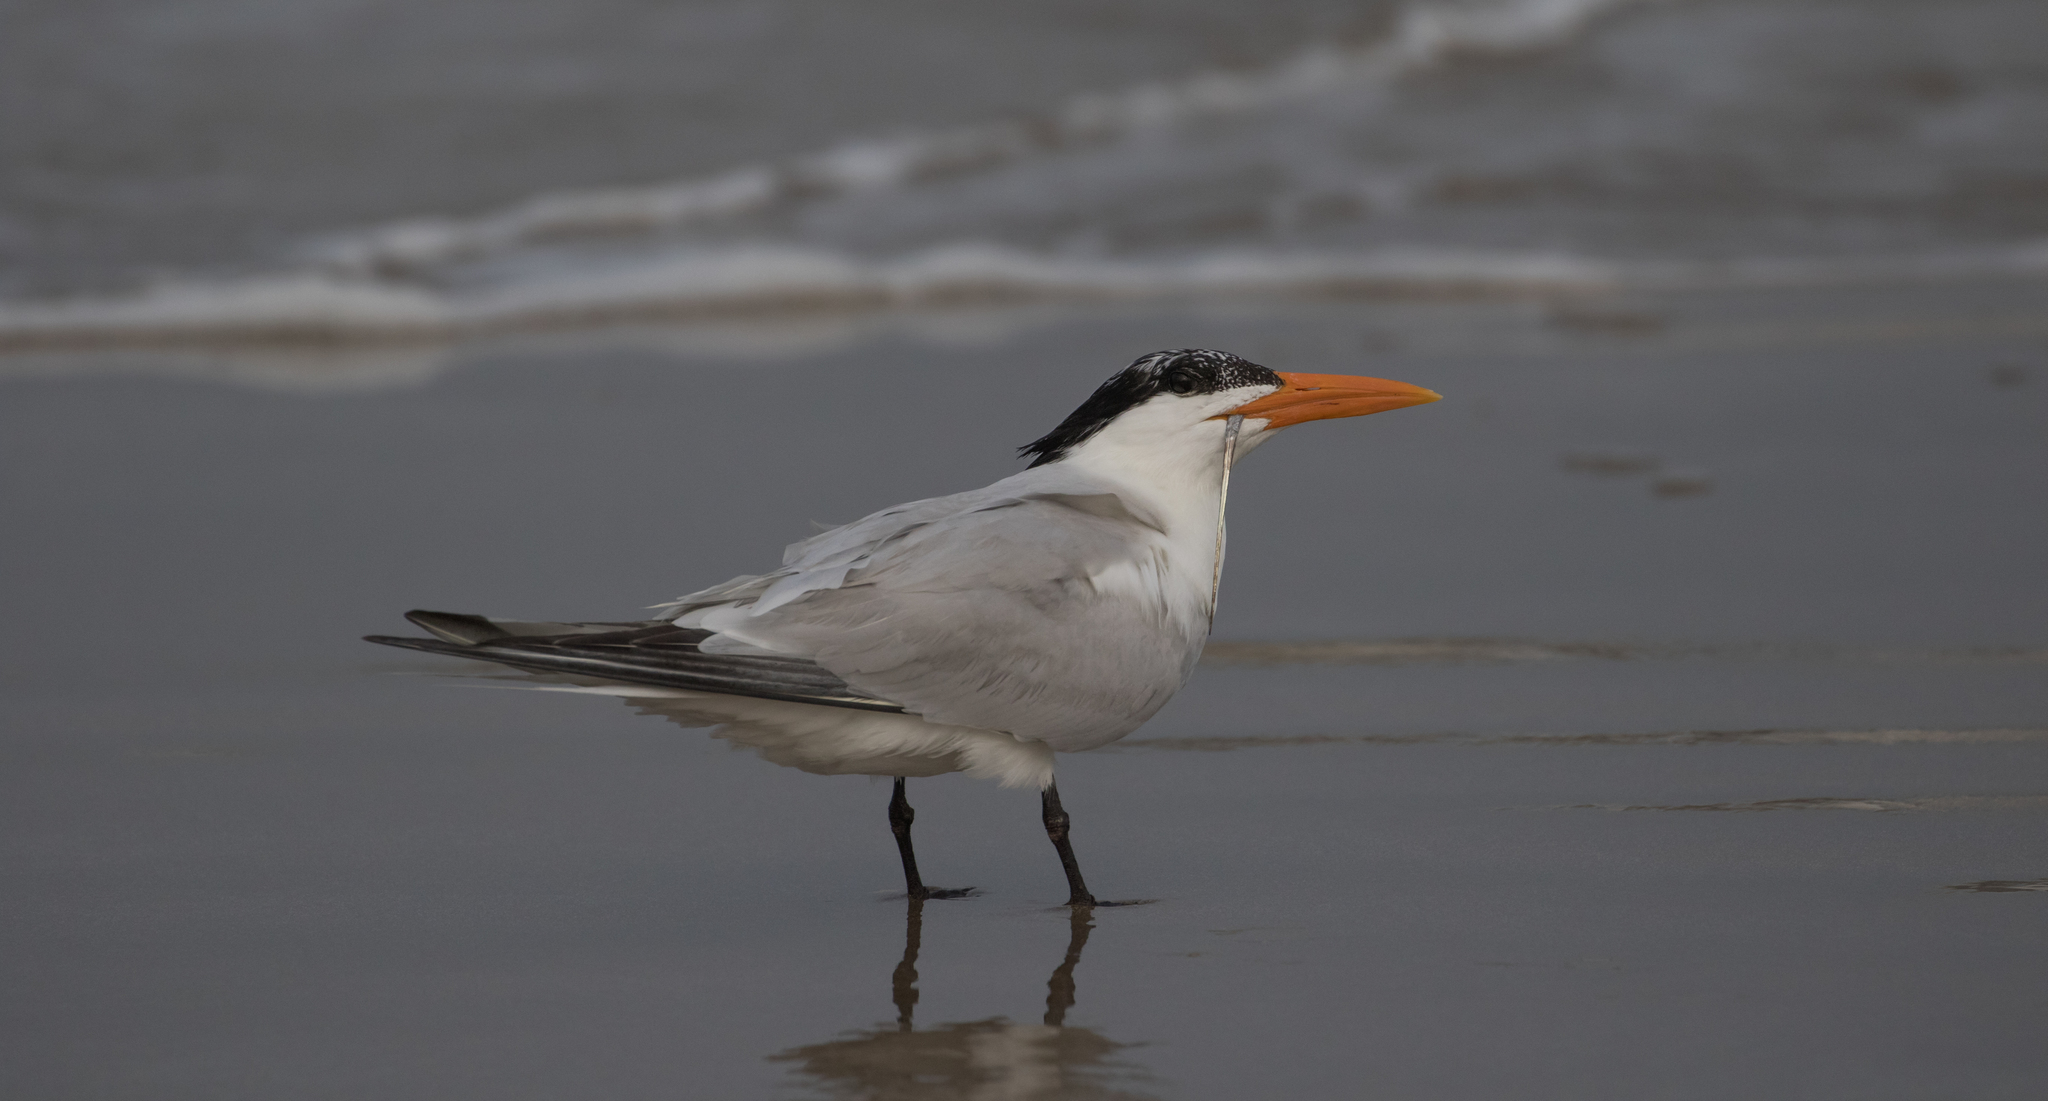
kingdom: Animalia
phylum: Chordata
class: Aves
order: Charadriiformes
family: Laridae
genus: Thalasseus
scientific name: Thalasseus maximus
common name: Royal tern
